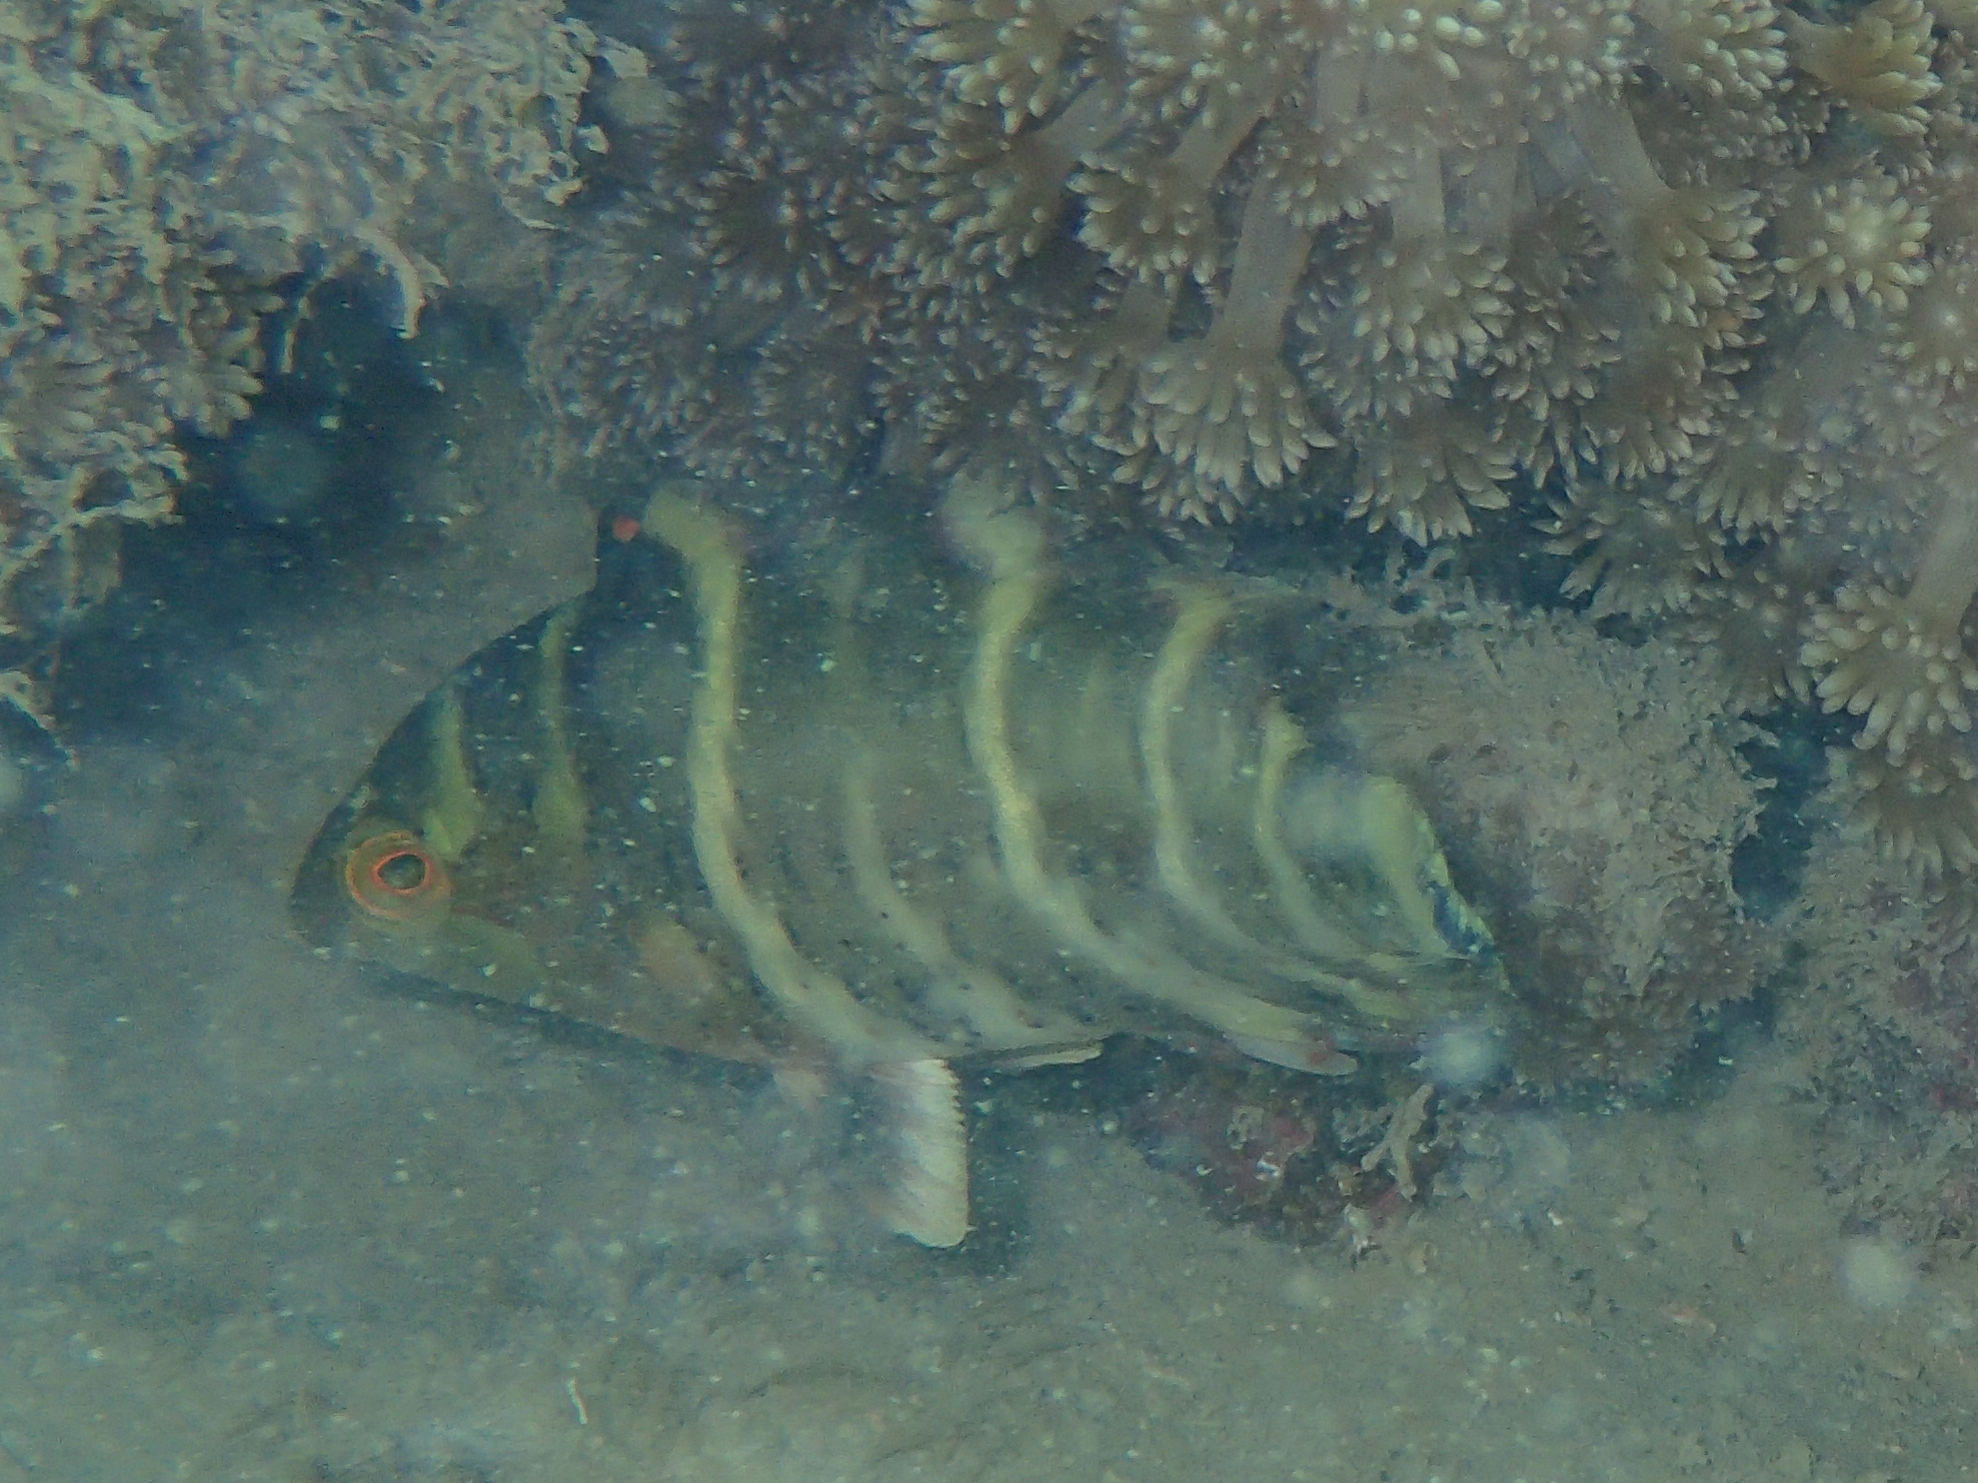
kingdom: Animalia
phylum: Chordata
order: Perciformes
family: Labridae
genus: Cheilinus
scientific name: Cheilinus fasciatus
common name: Red-breasted wrasse
